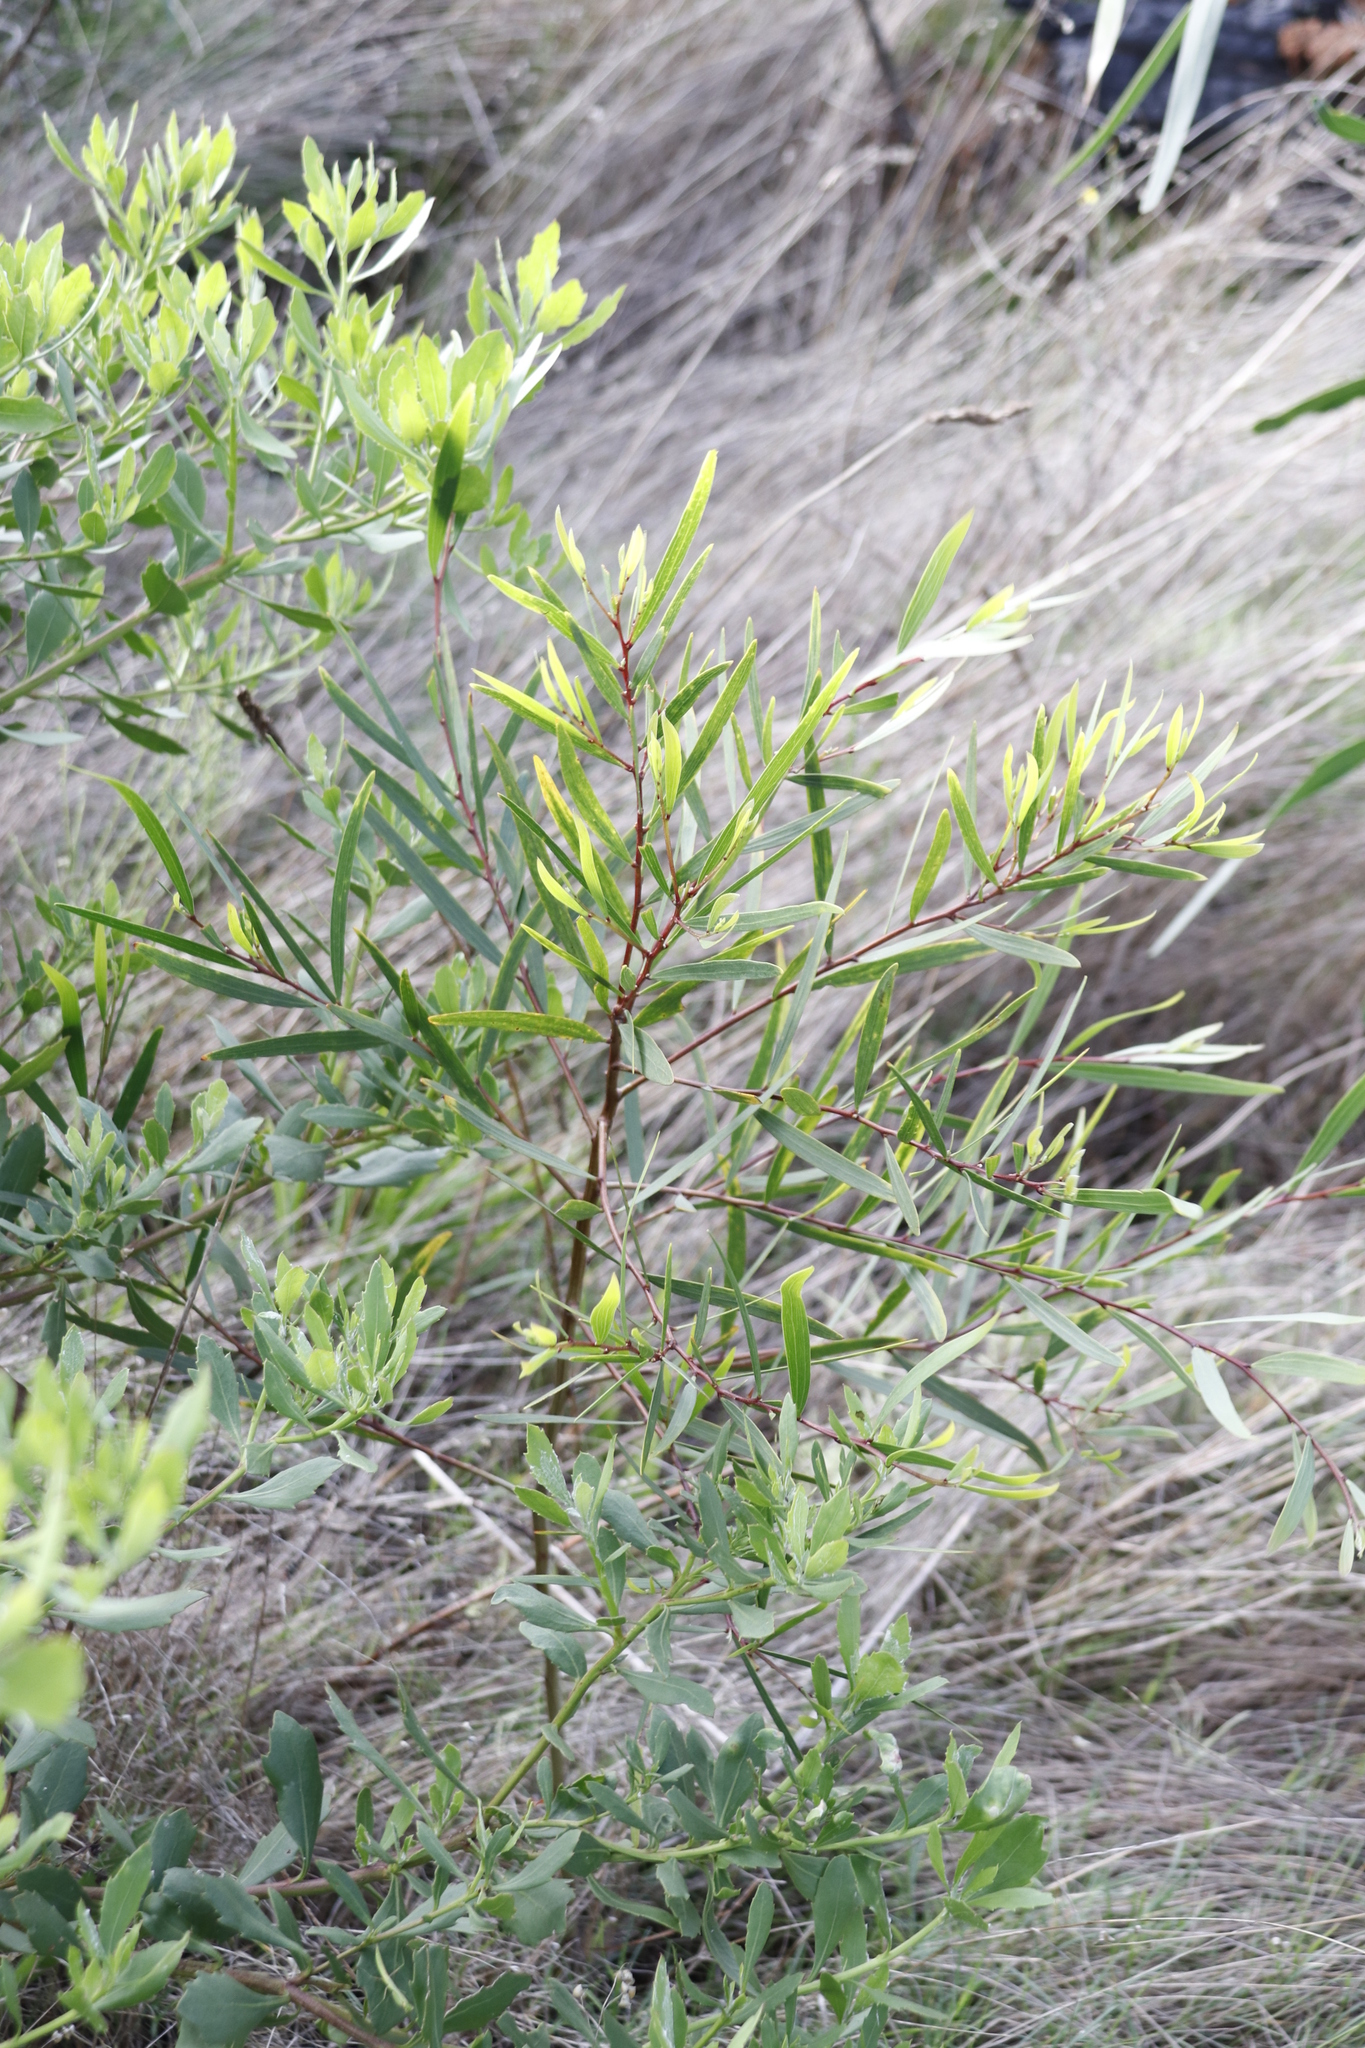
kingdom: Plantae
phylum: Tracheophyta
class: Magnoliopsida
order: Fabales
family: Fabaceae
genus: Acacia
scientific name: Acacia longifolia
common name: Sydney golden wattle
